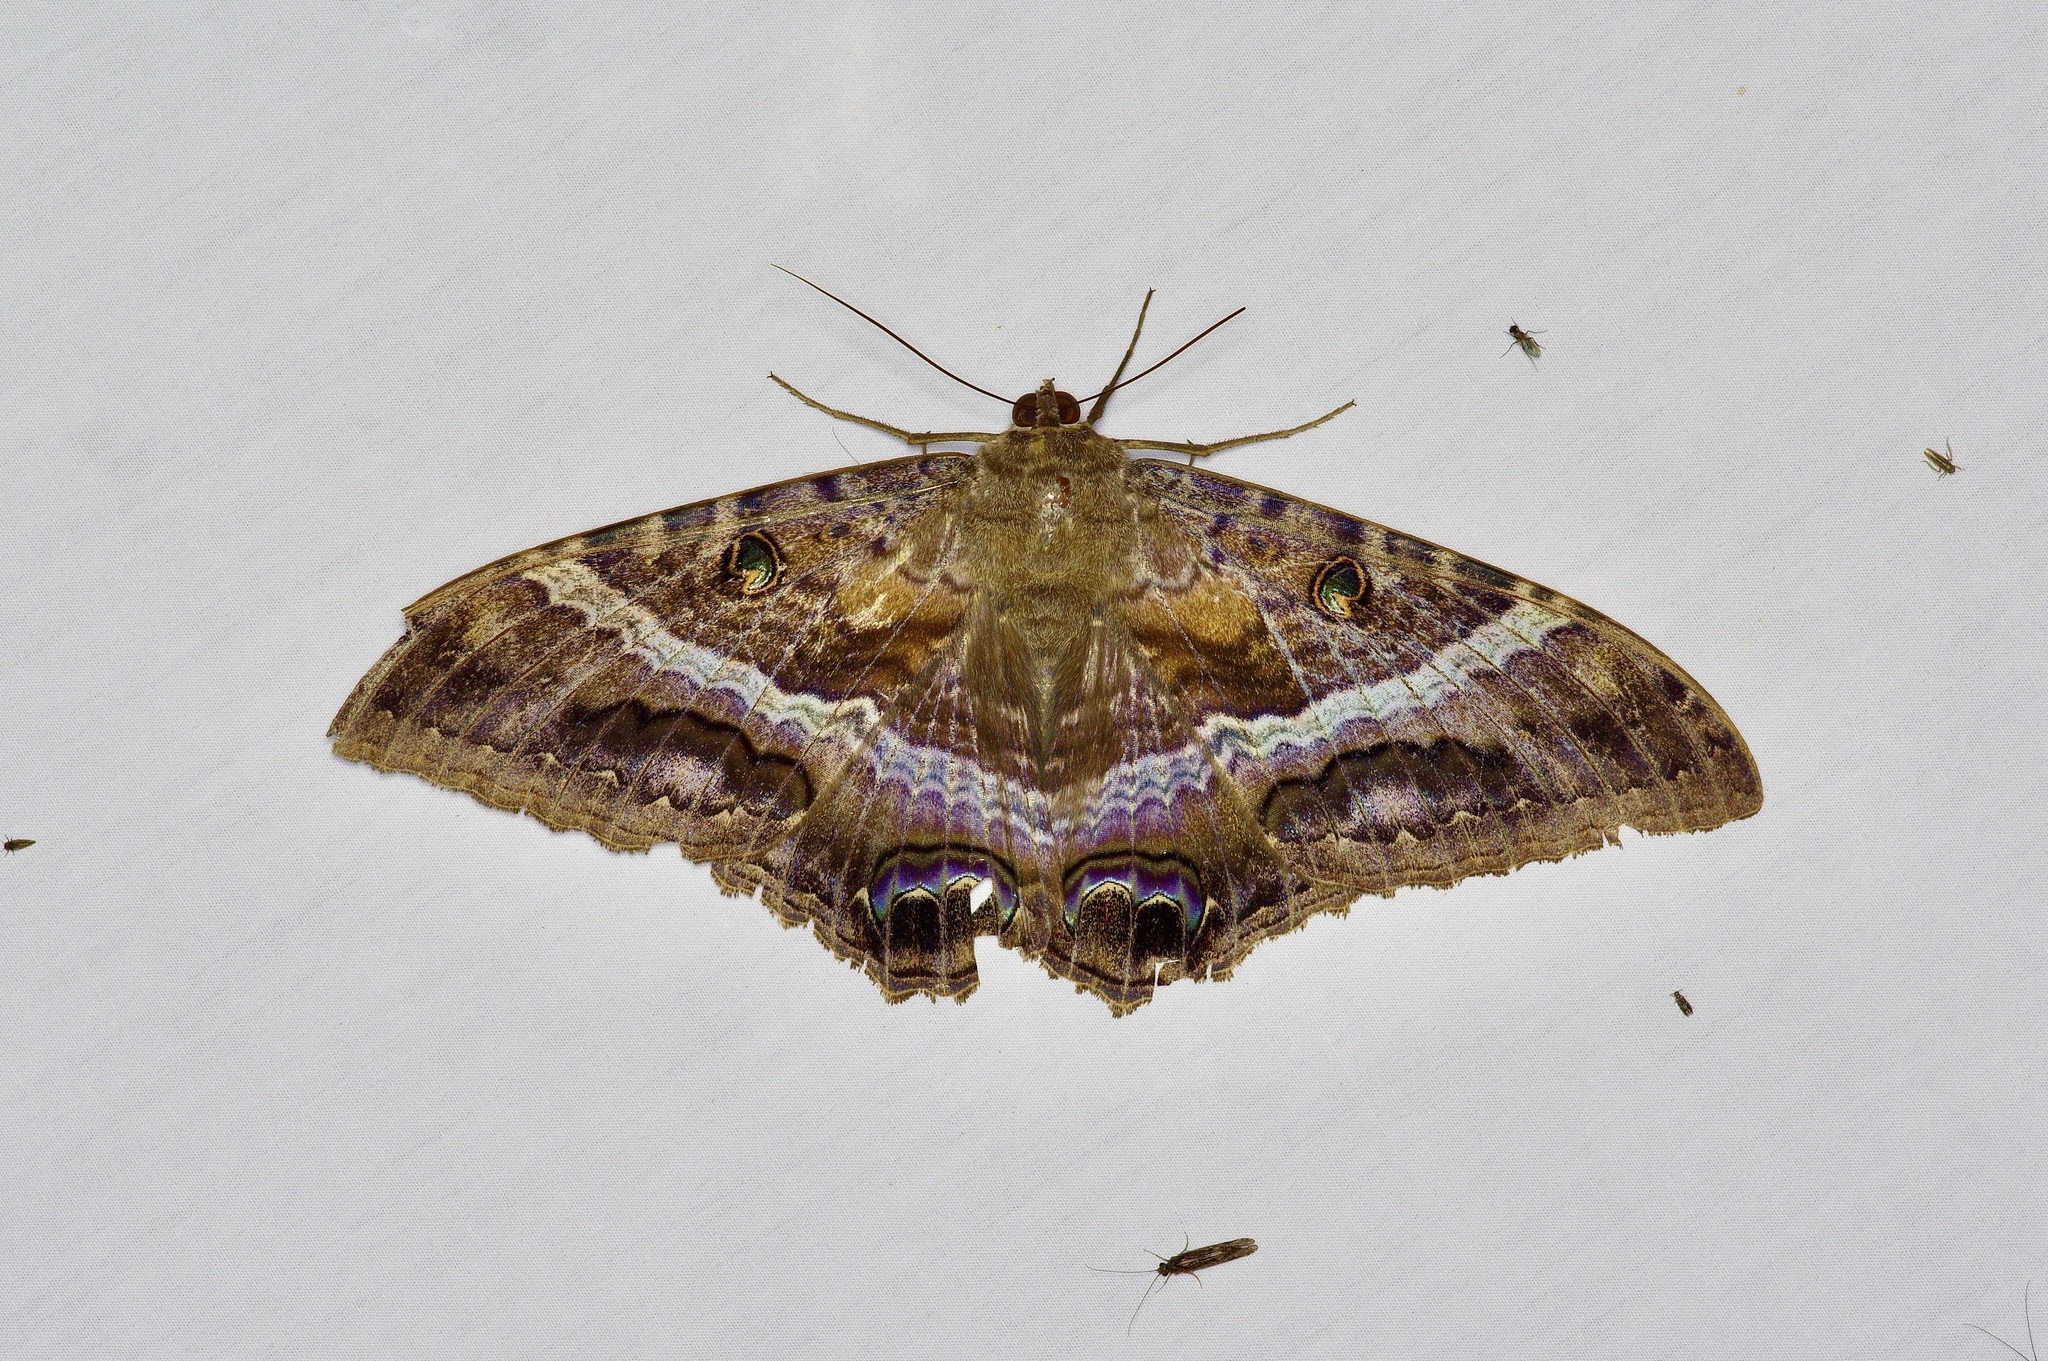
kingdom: Animalia
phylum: Arthropoda
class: Insecta
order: Lepidoptera
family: Erebidae
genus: Ascalapha
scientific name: Ascalapha odorata
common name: Black witch
